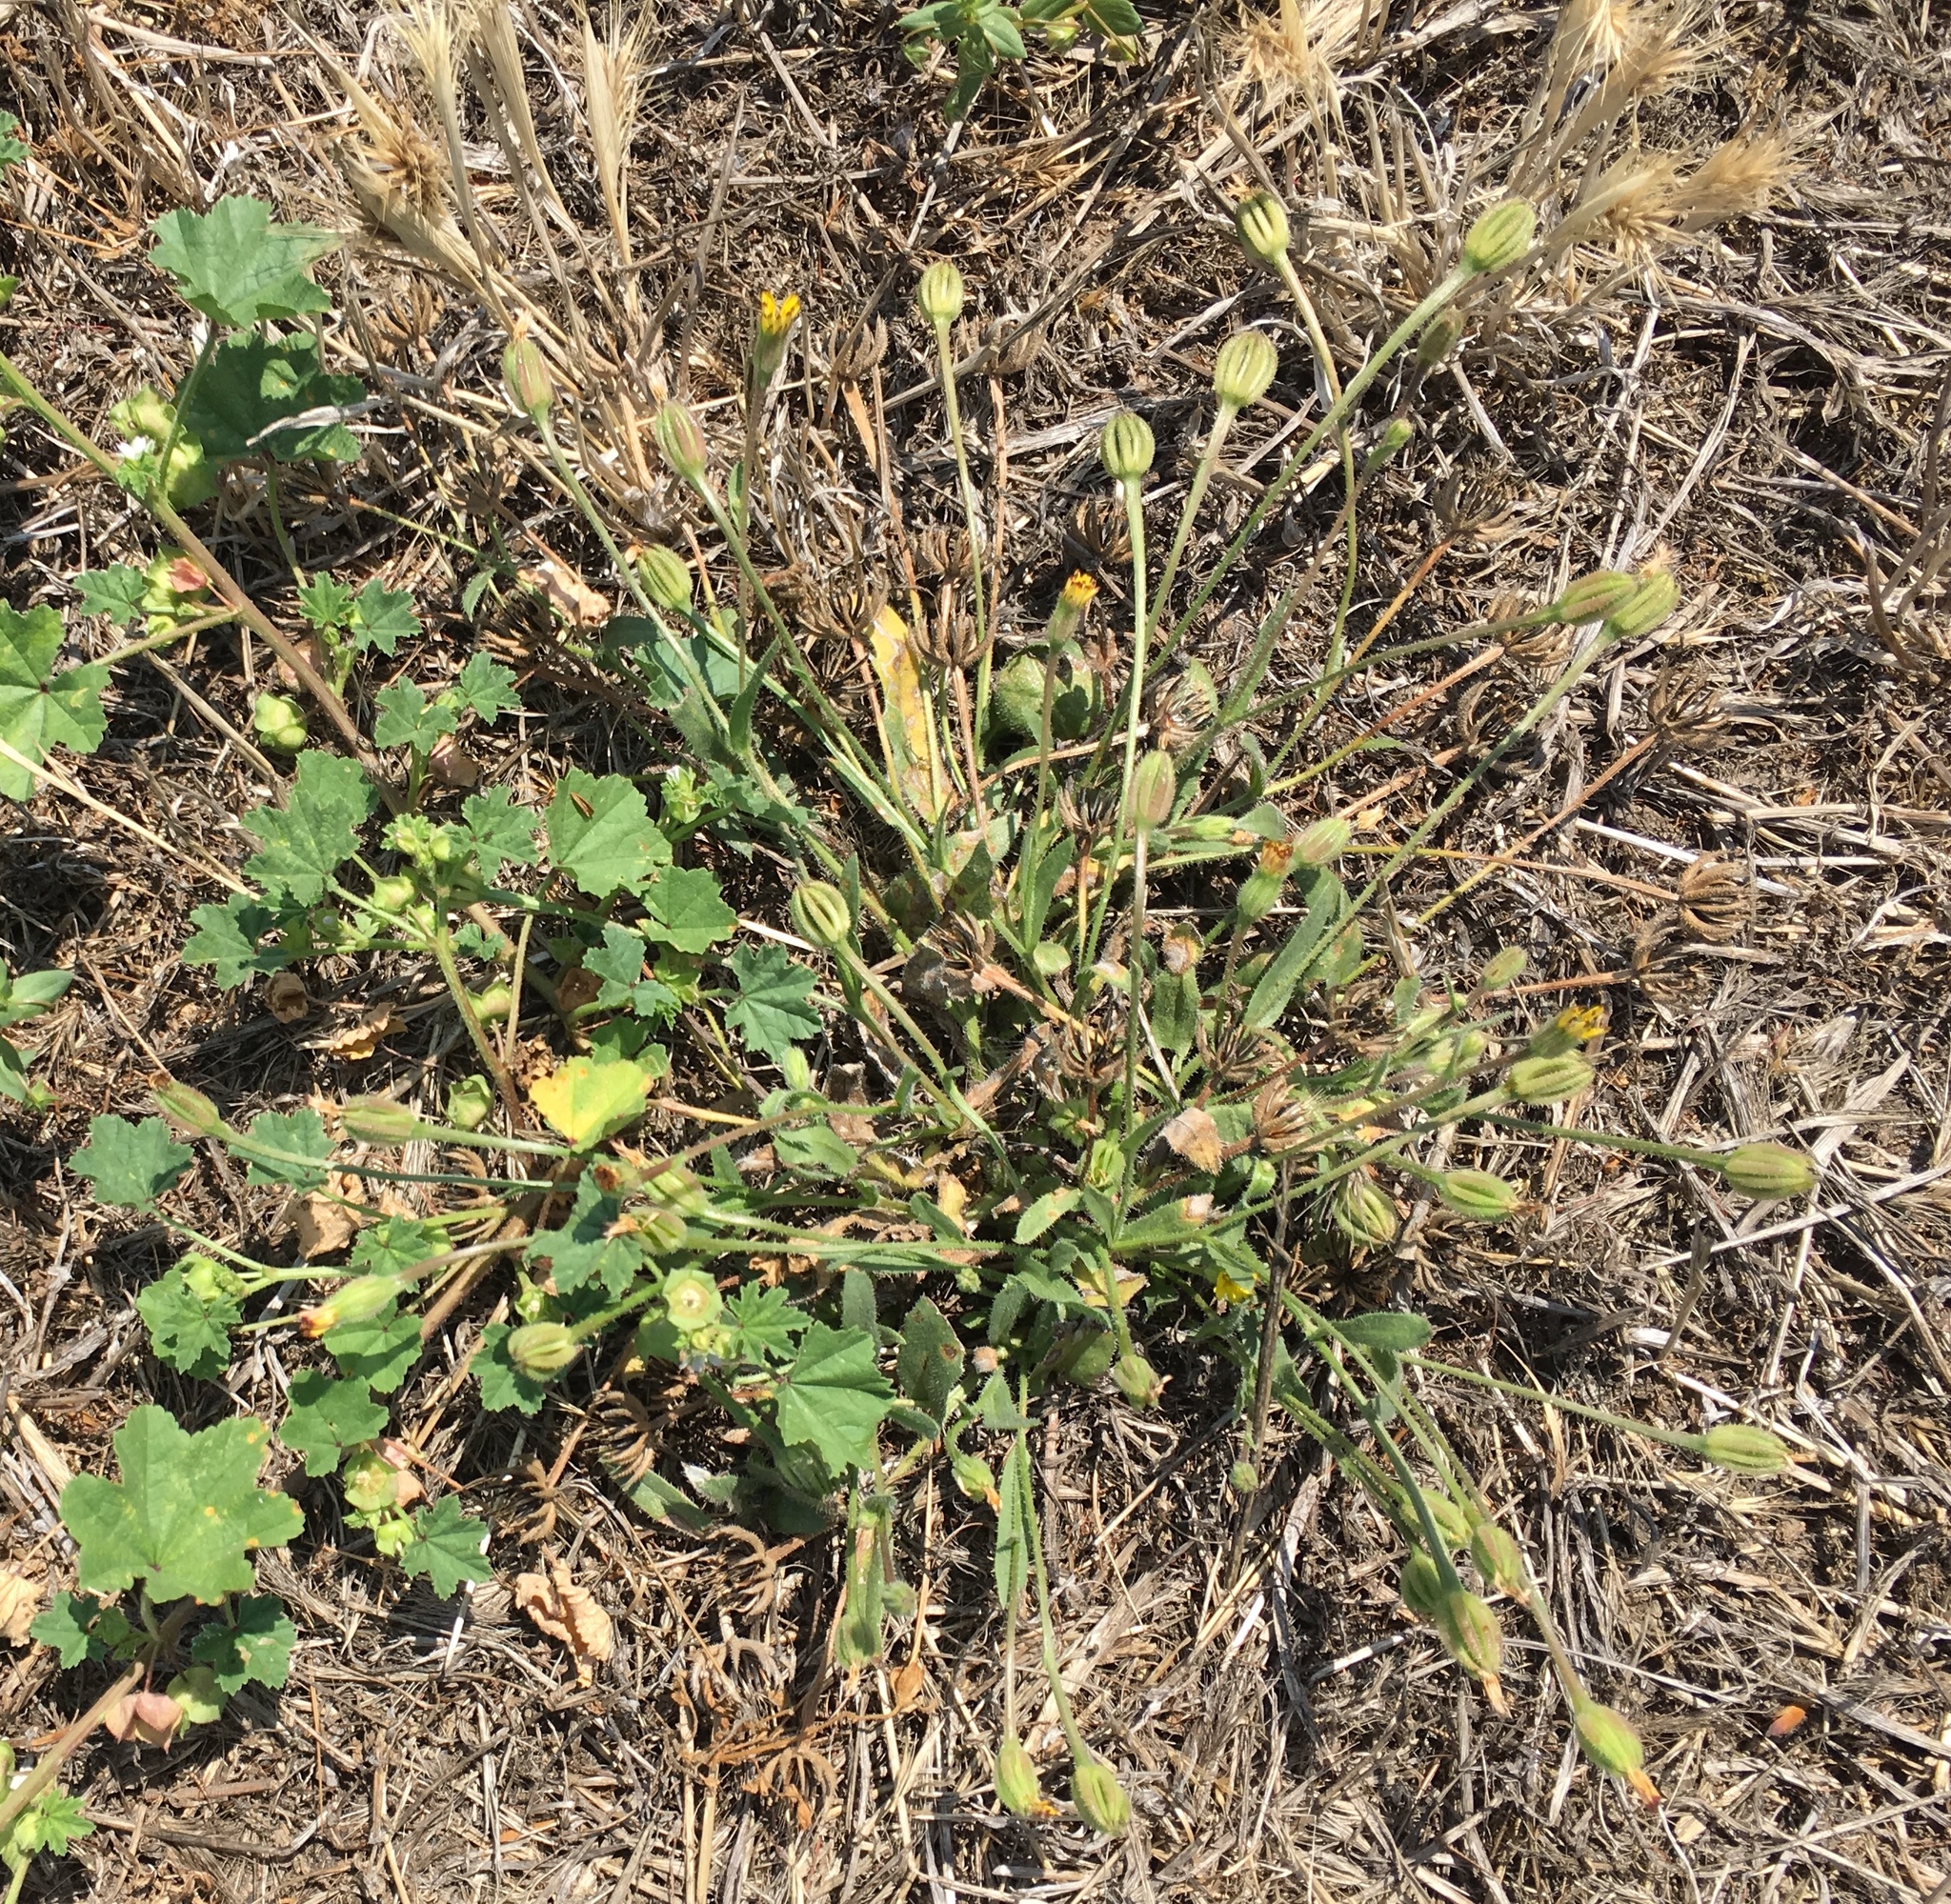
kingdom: Plantae
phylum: Tracheophyta
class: Magnoliopsida
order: Asterales
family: Asteraceae
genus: Hedypnois
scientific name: Hedypnois rhagadioloides
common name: Cretan weed
